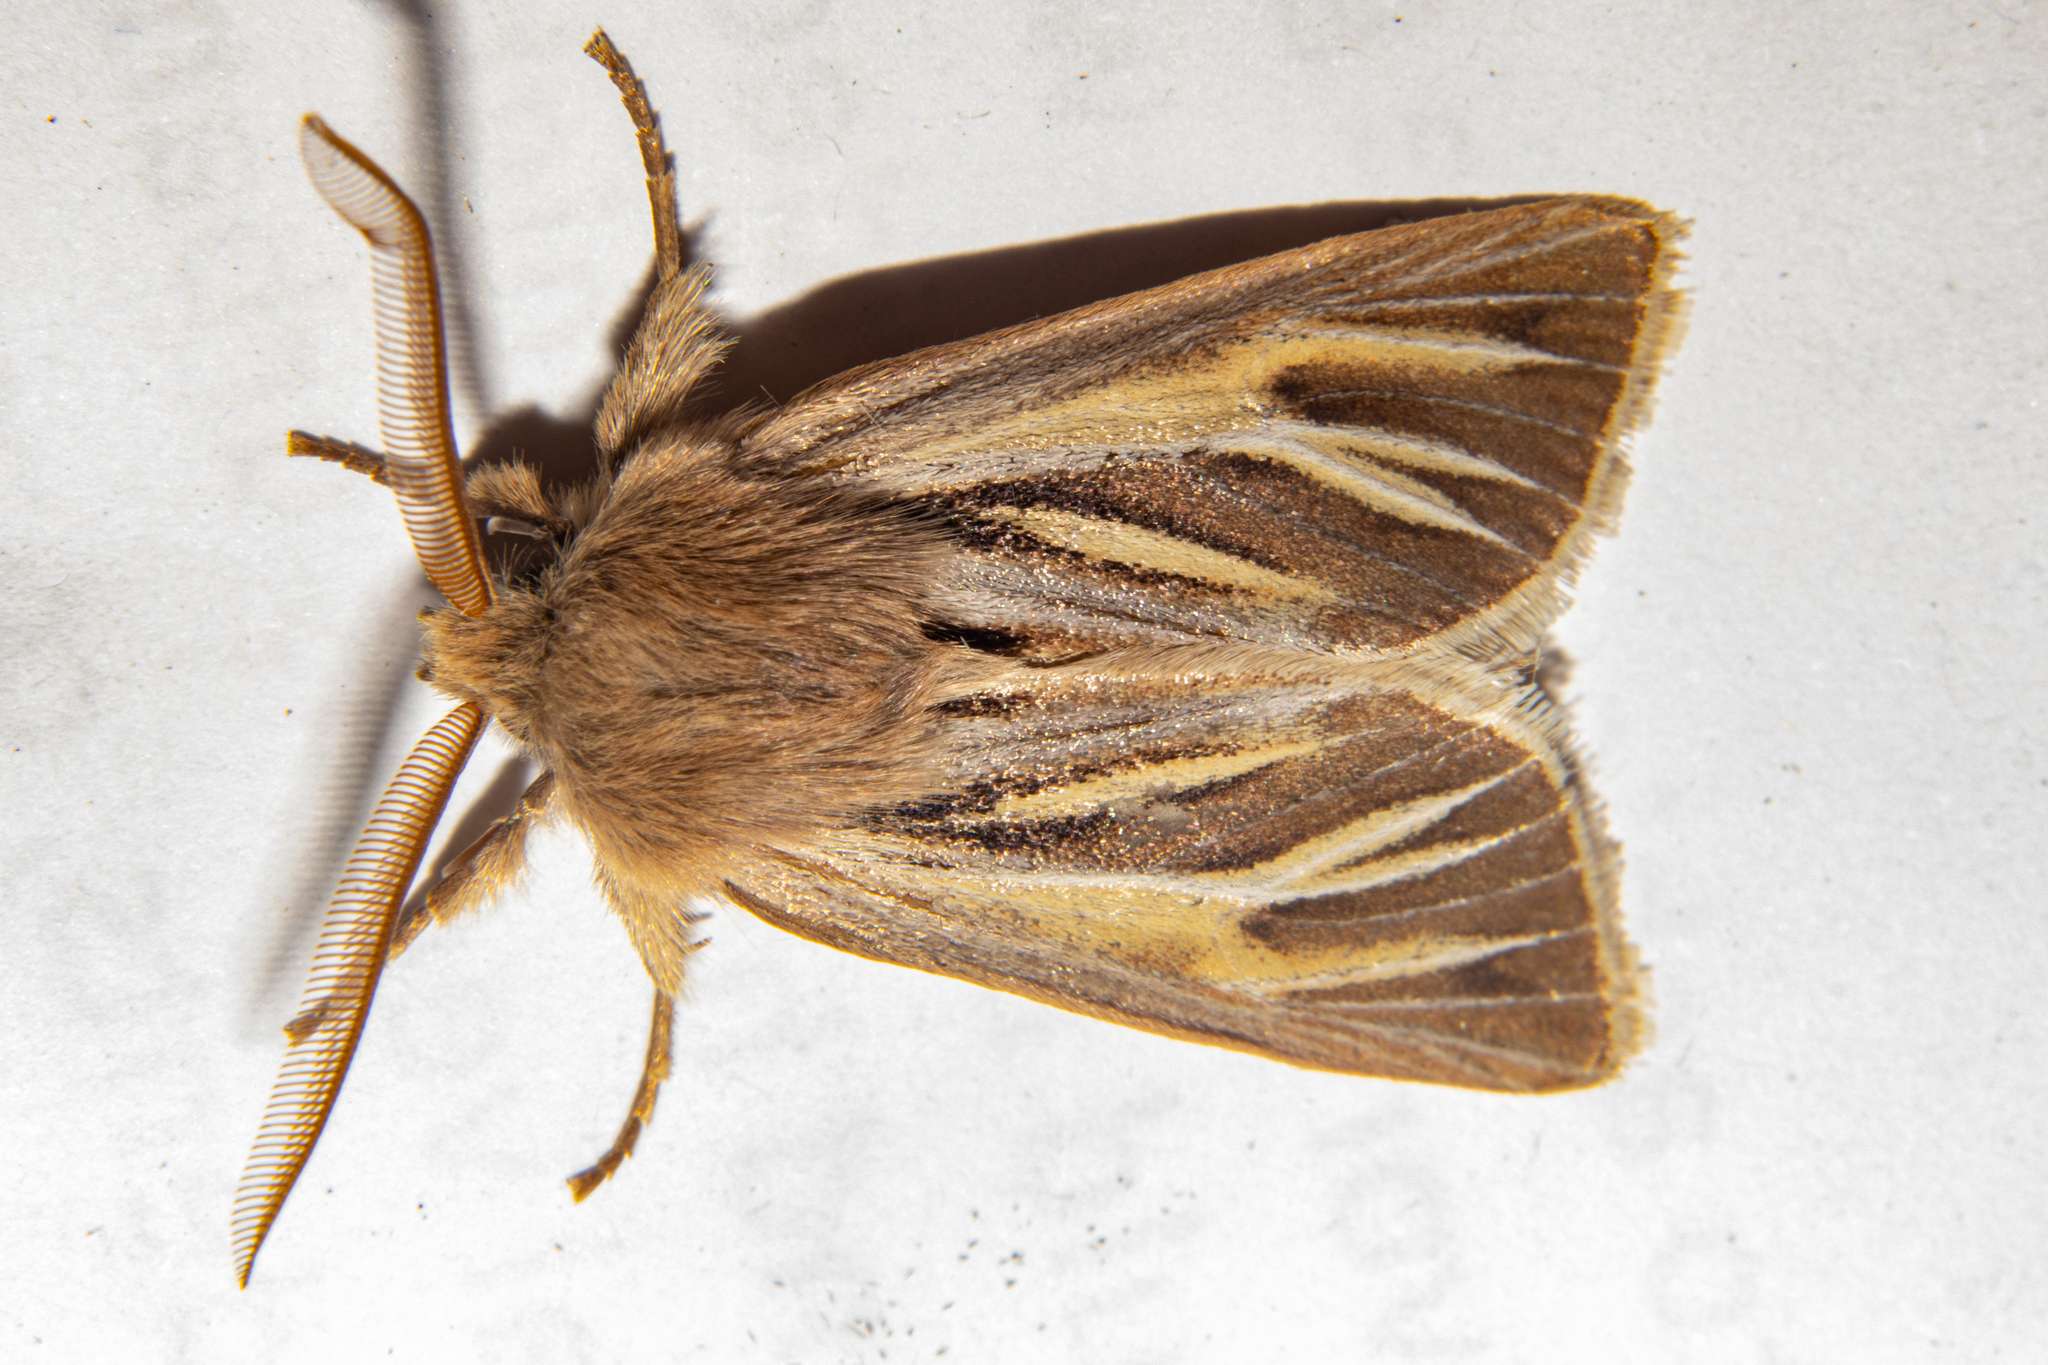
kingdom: Animalia
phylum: Arthropoda
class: Insecta
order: Lepidoptera
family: Noctuidae
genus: Ichneutica
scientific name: Ichneutica caraunias
